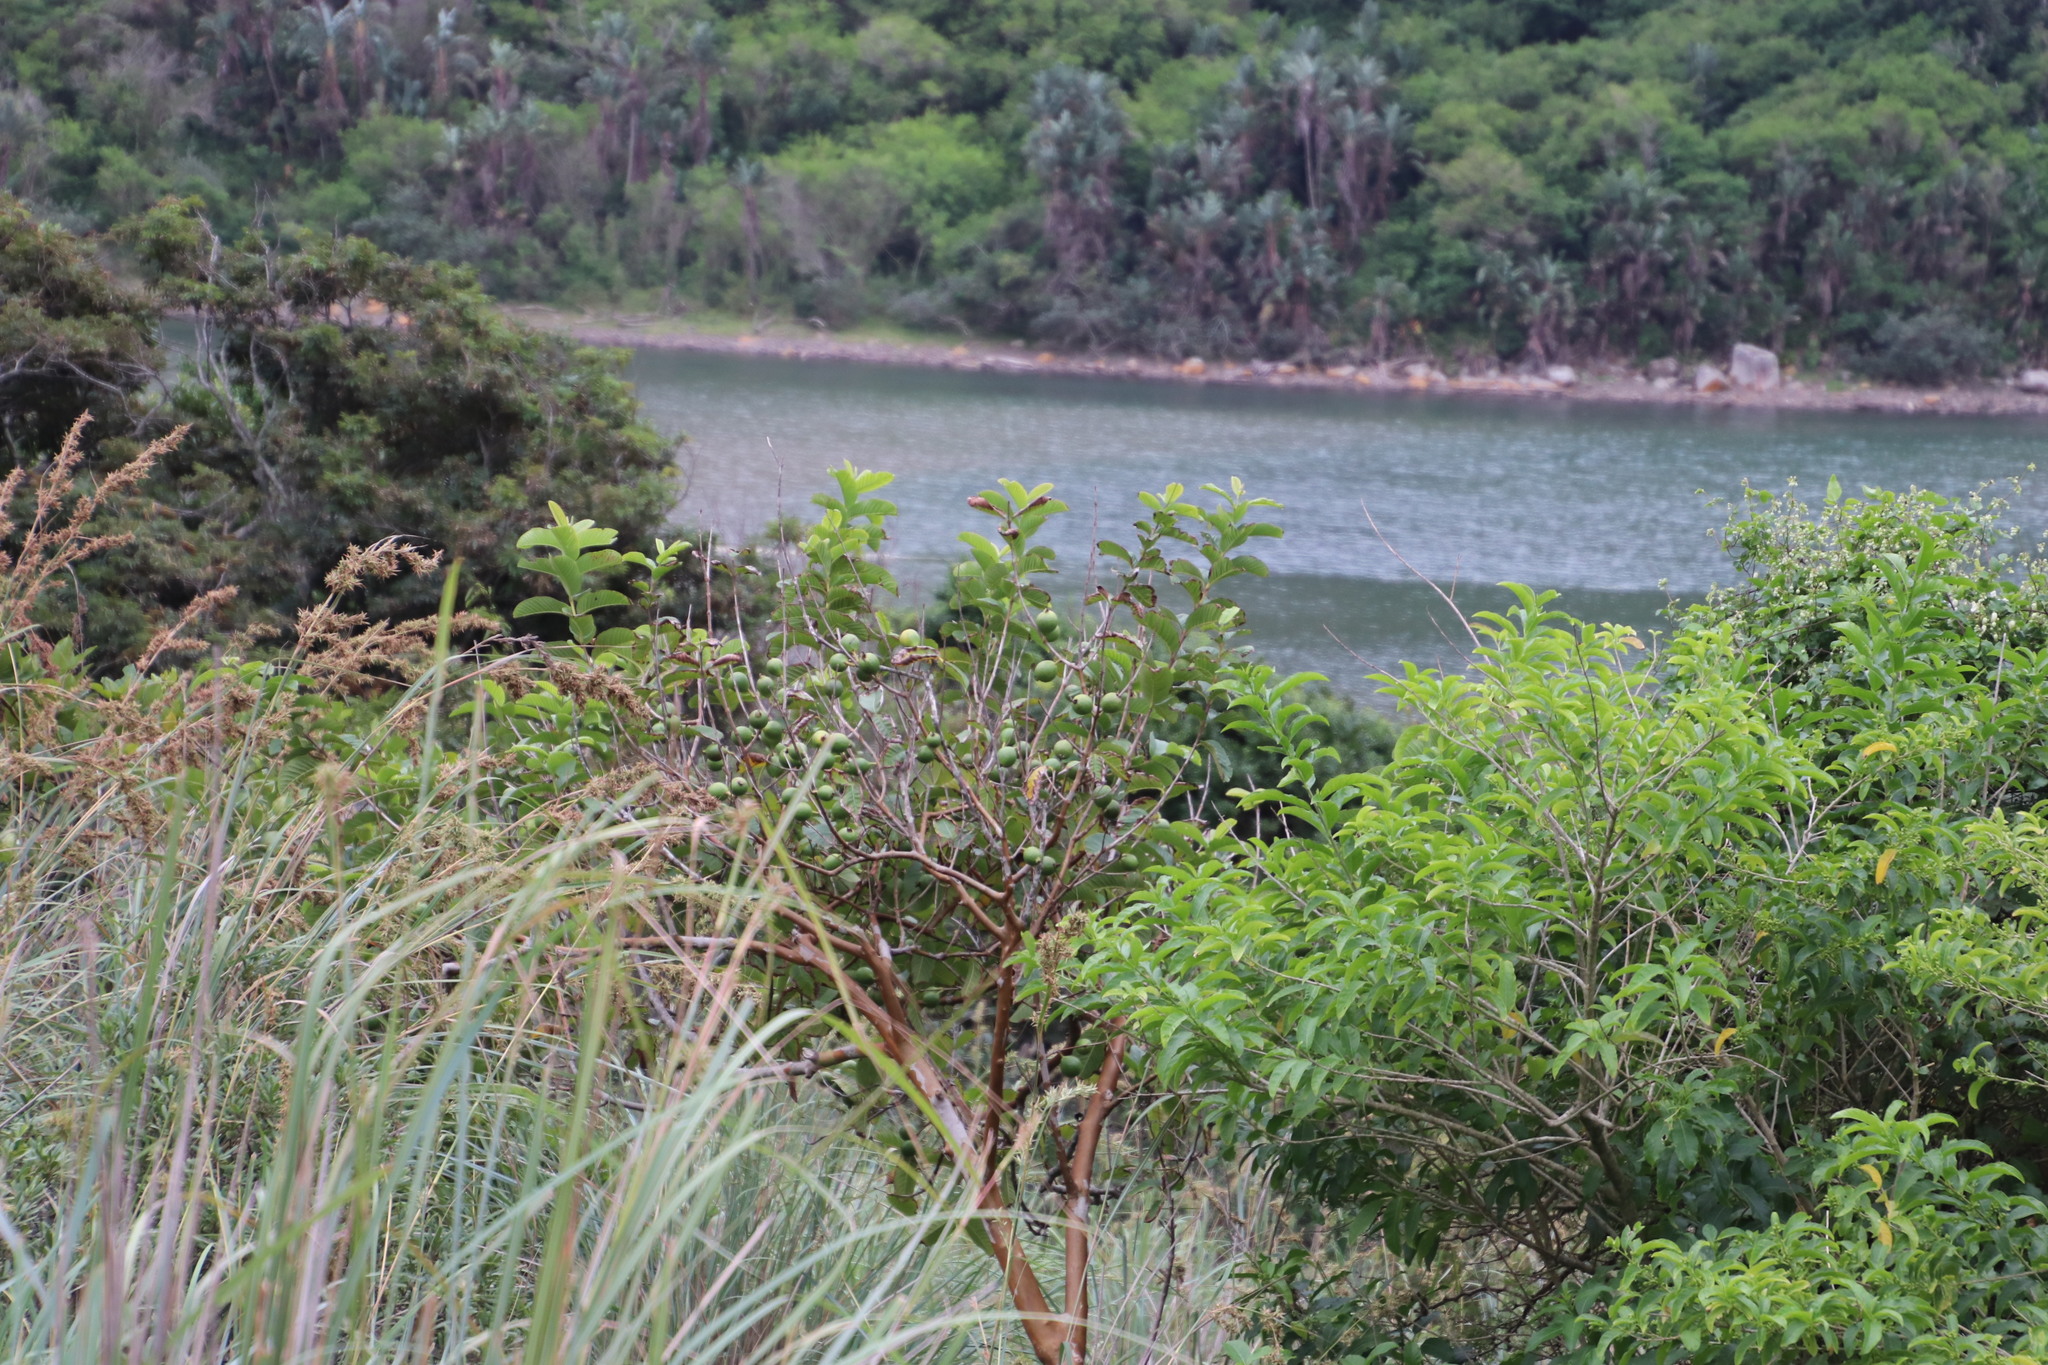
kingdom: Plantae
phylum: Tracheophyta
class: Magnoliopsida
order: Myrtales
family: Myrtaceae
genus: Psidium
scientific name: Psidium guajava
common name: Guava
